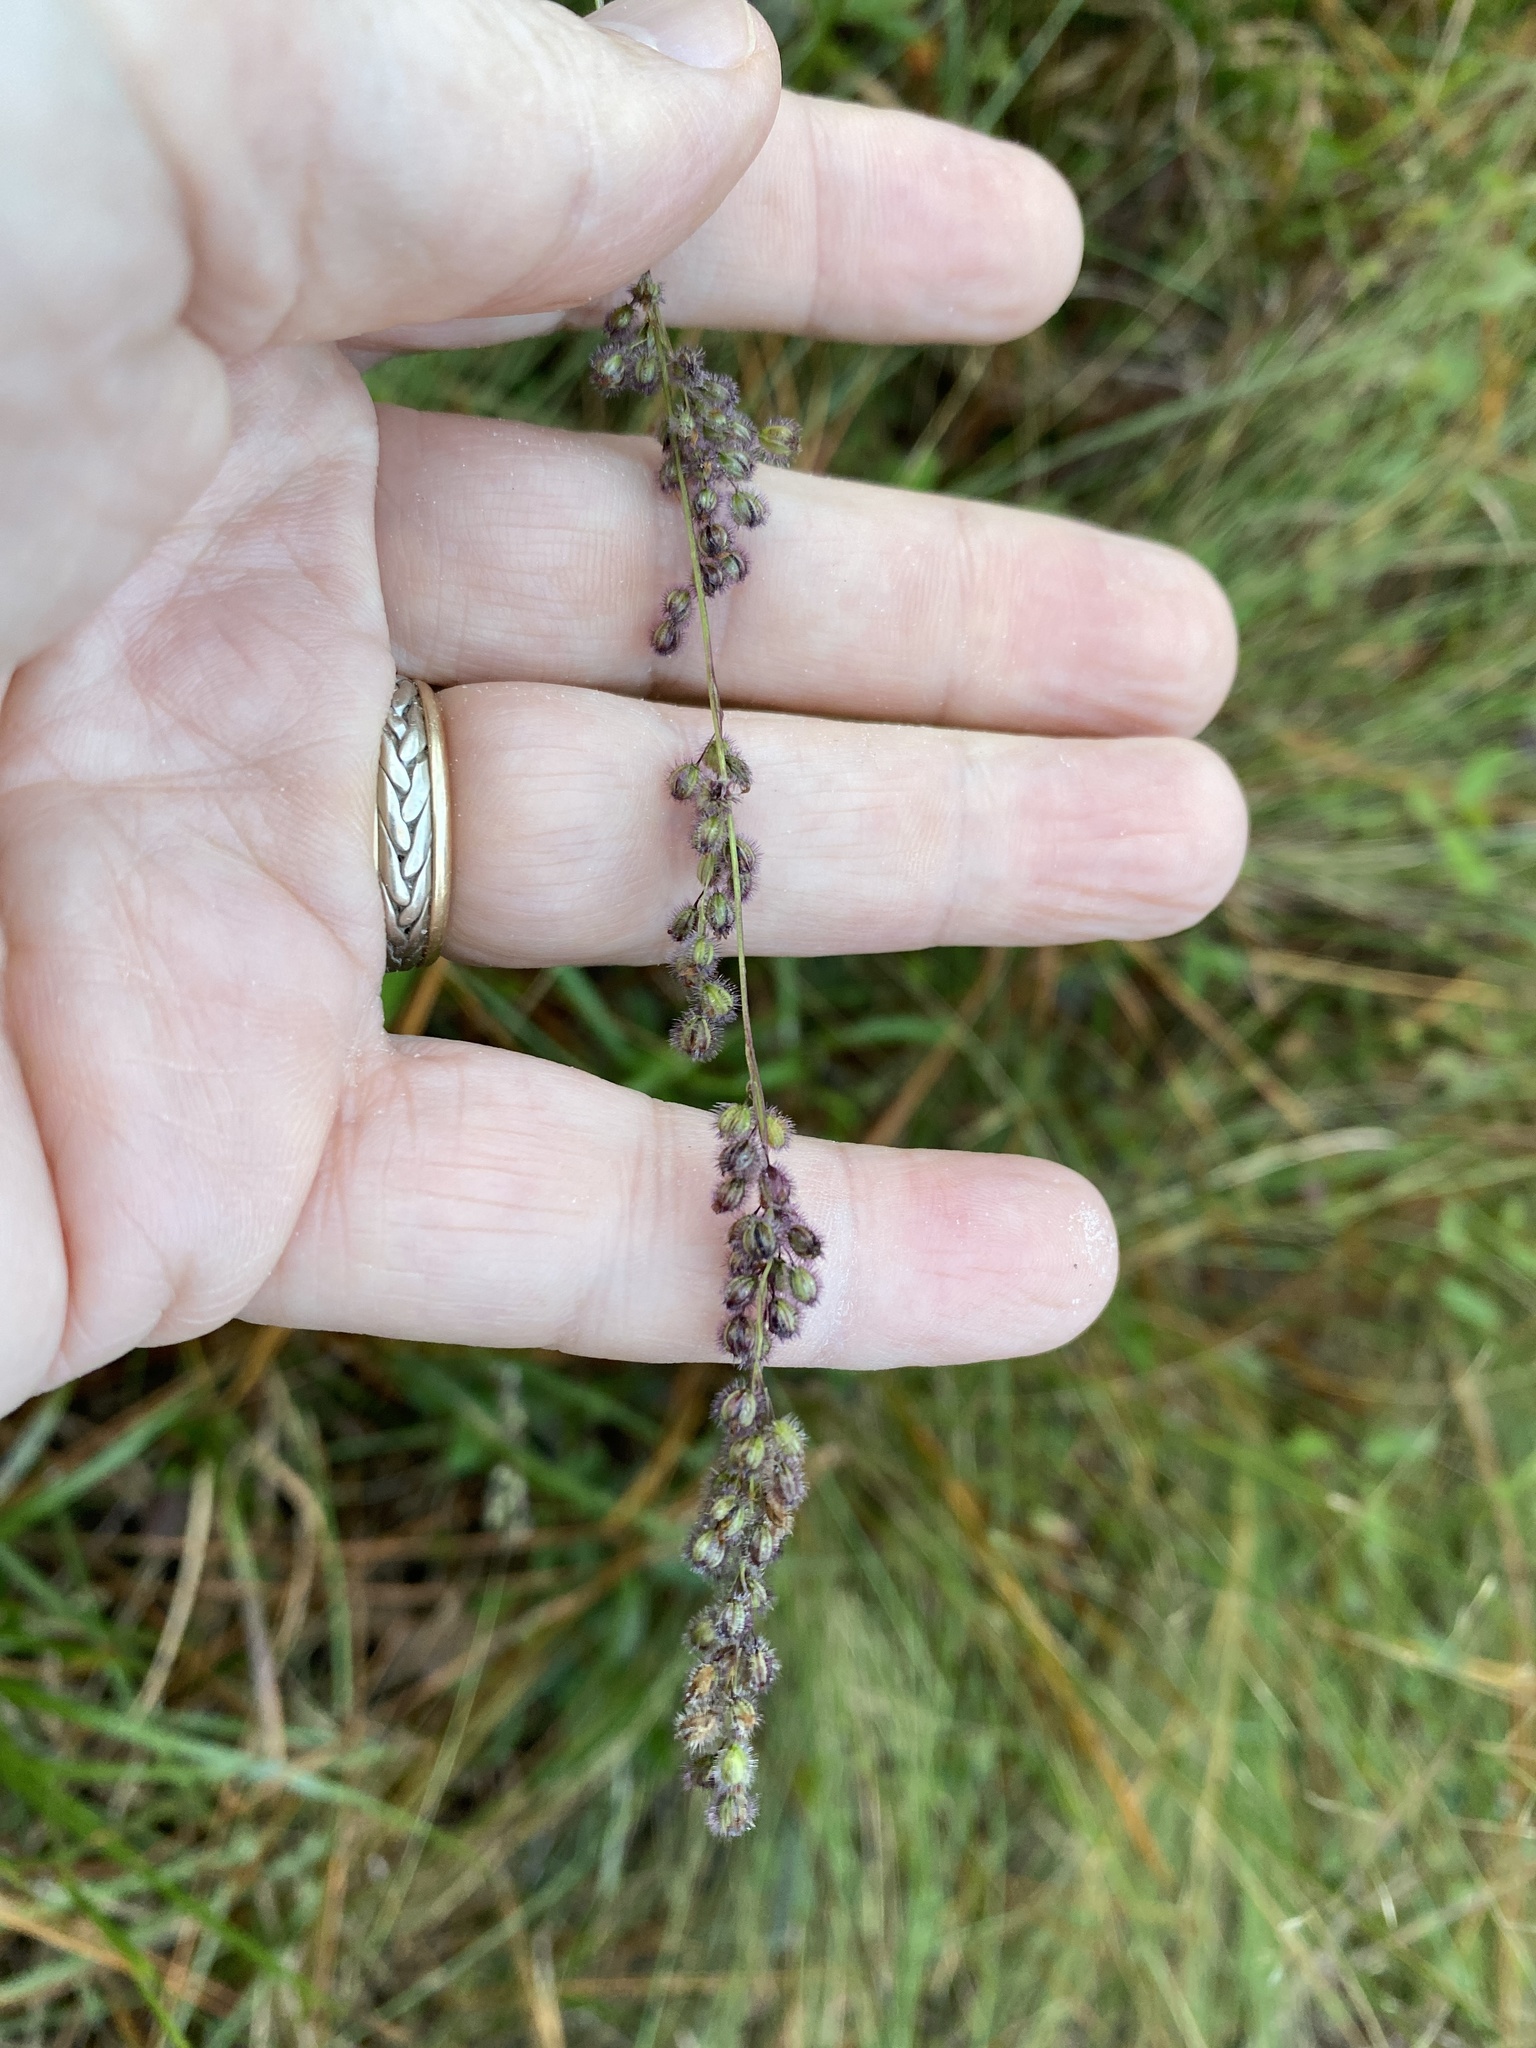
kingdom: Plantae
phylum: Tracheophyta
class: Liliopsida
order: Poales
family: Poaceae
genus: Anthenantia
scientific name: Anthenantia rufa
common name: Purple silkyscale
